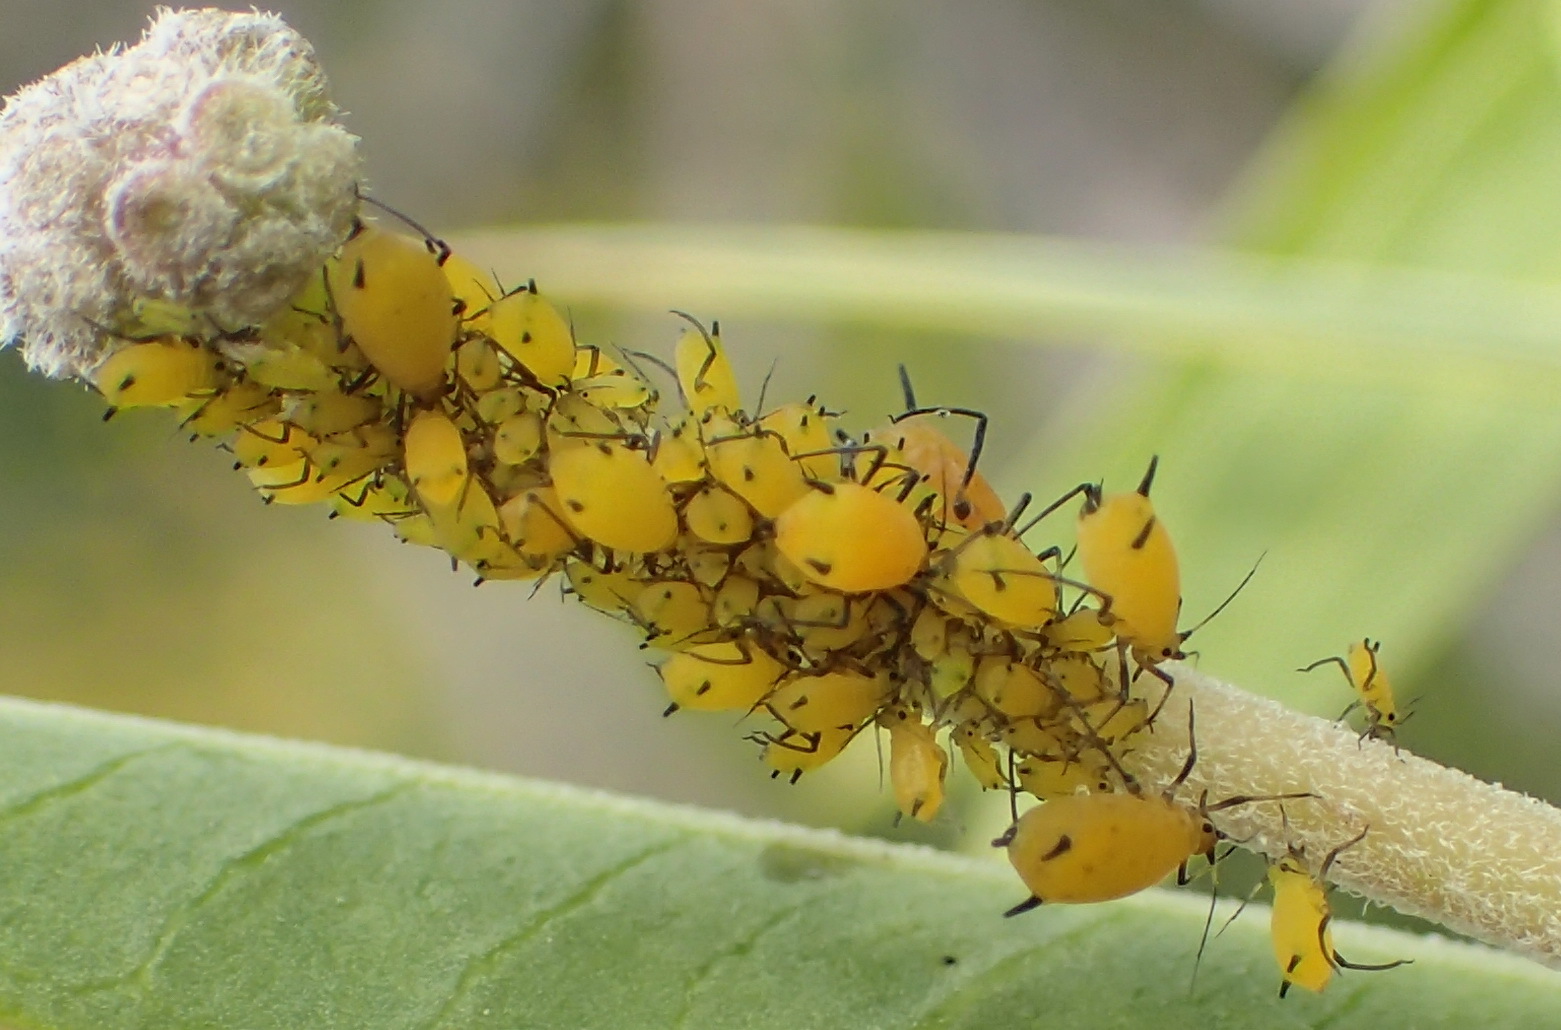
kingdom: Animalia
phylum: Arthropoda
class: Insecta
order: Hemiptera
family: Aphididae
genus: Aphis
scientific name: Aphis nerii
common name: Oleander aphid
